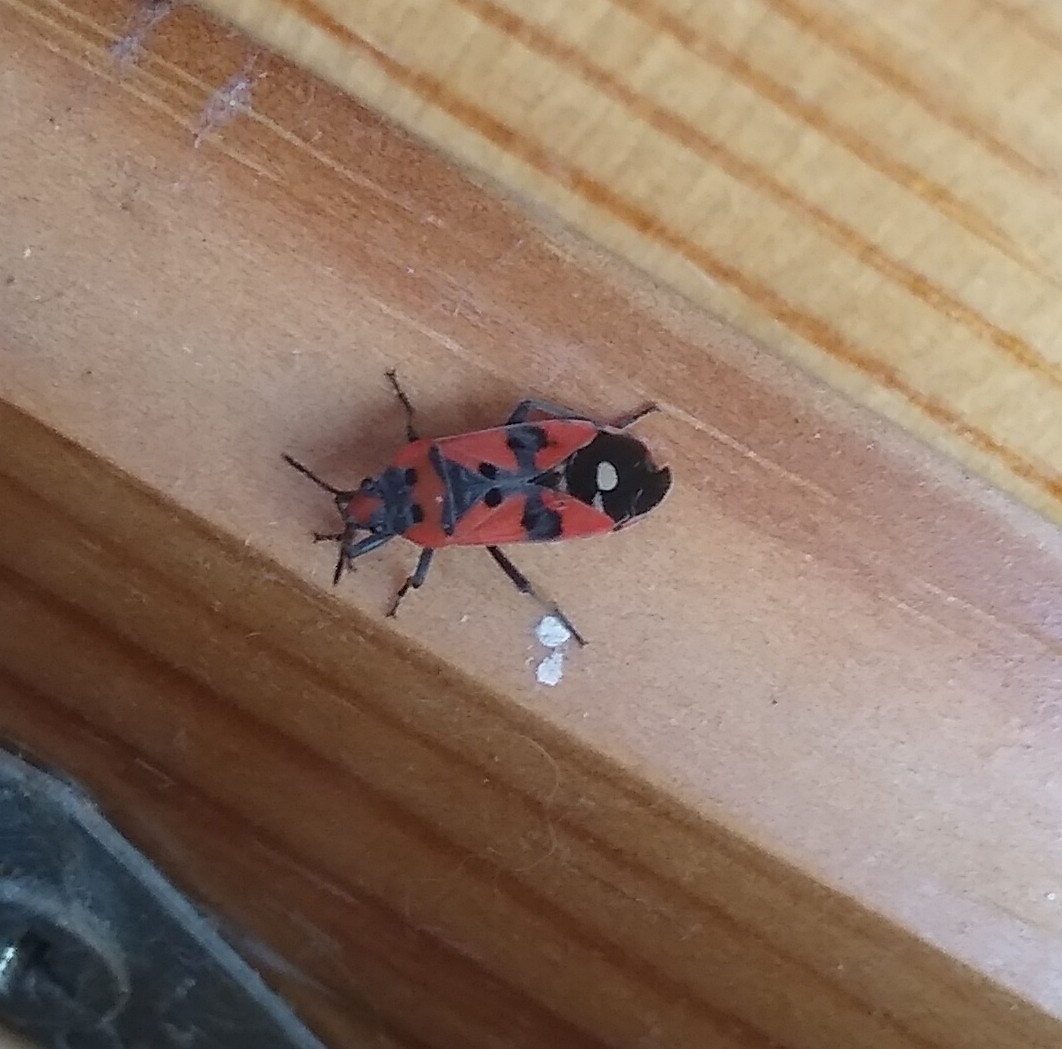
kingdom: Animalia
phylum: Arthropoda
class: Insecta
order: Hemiptera
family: Lygaeidae
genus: Lygaeus
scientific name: Lygaeus equestris
